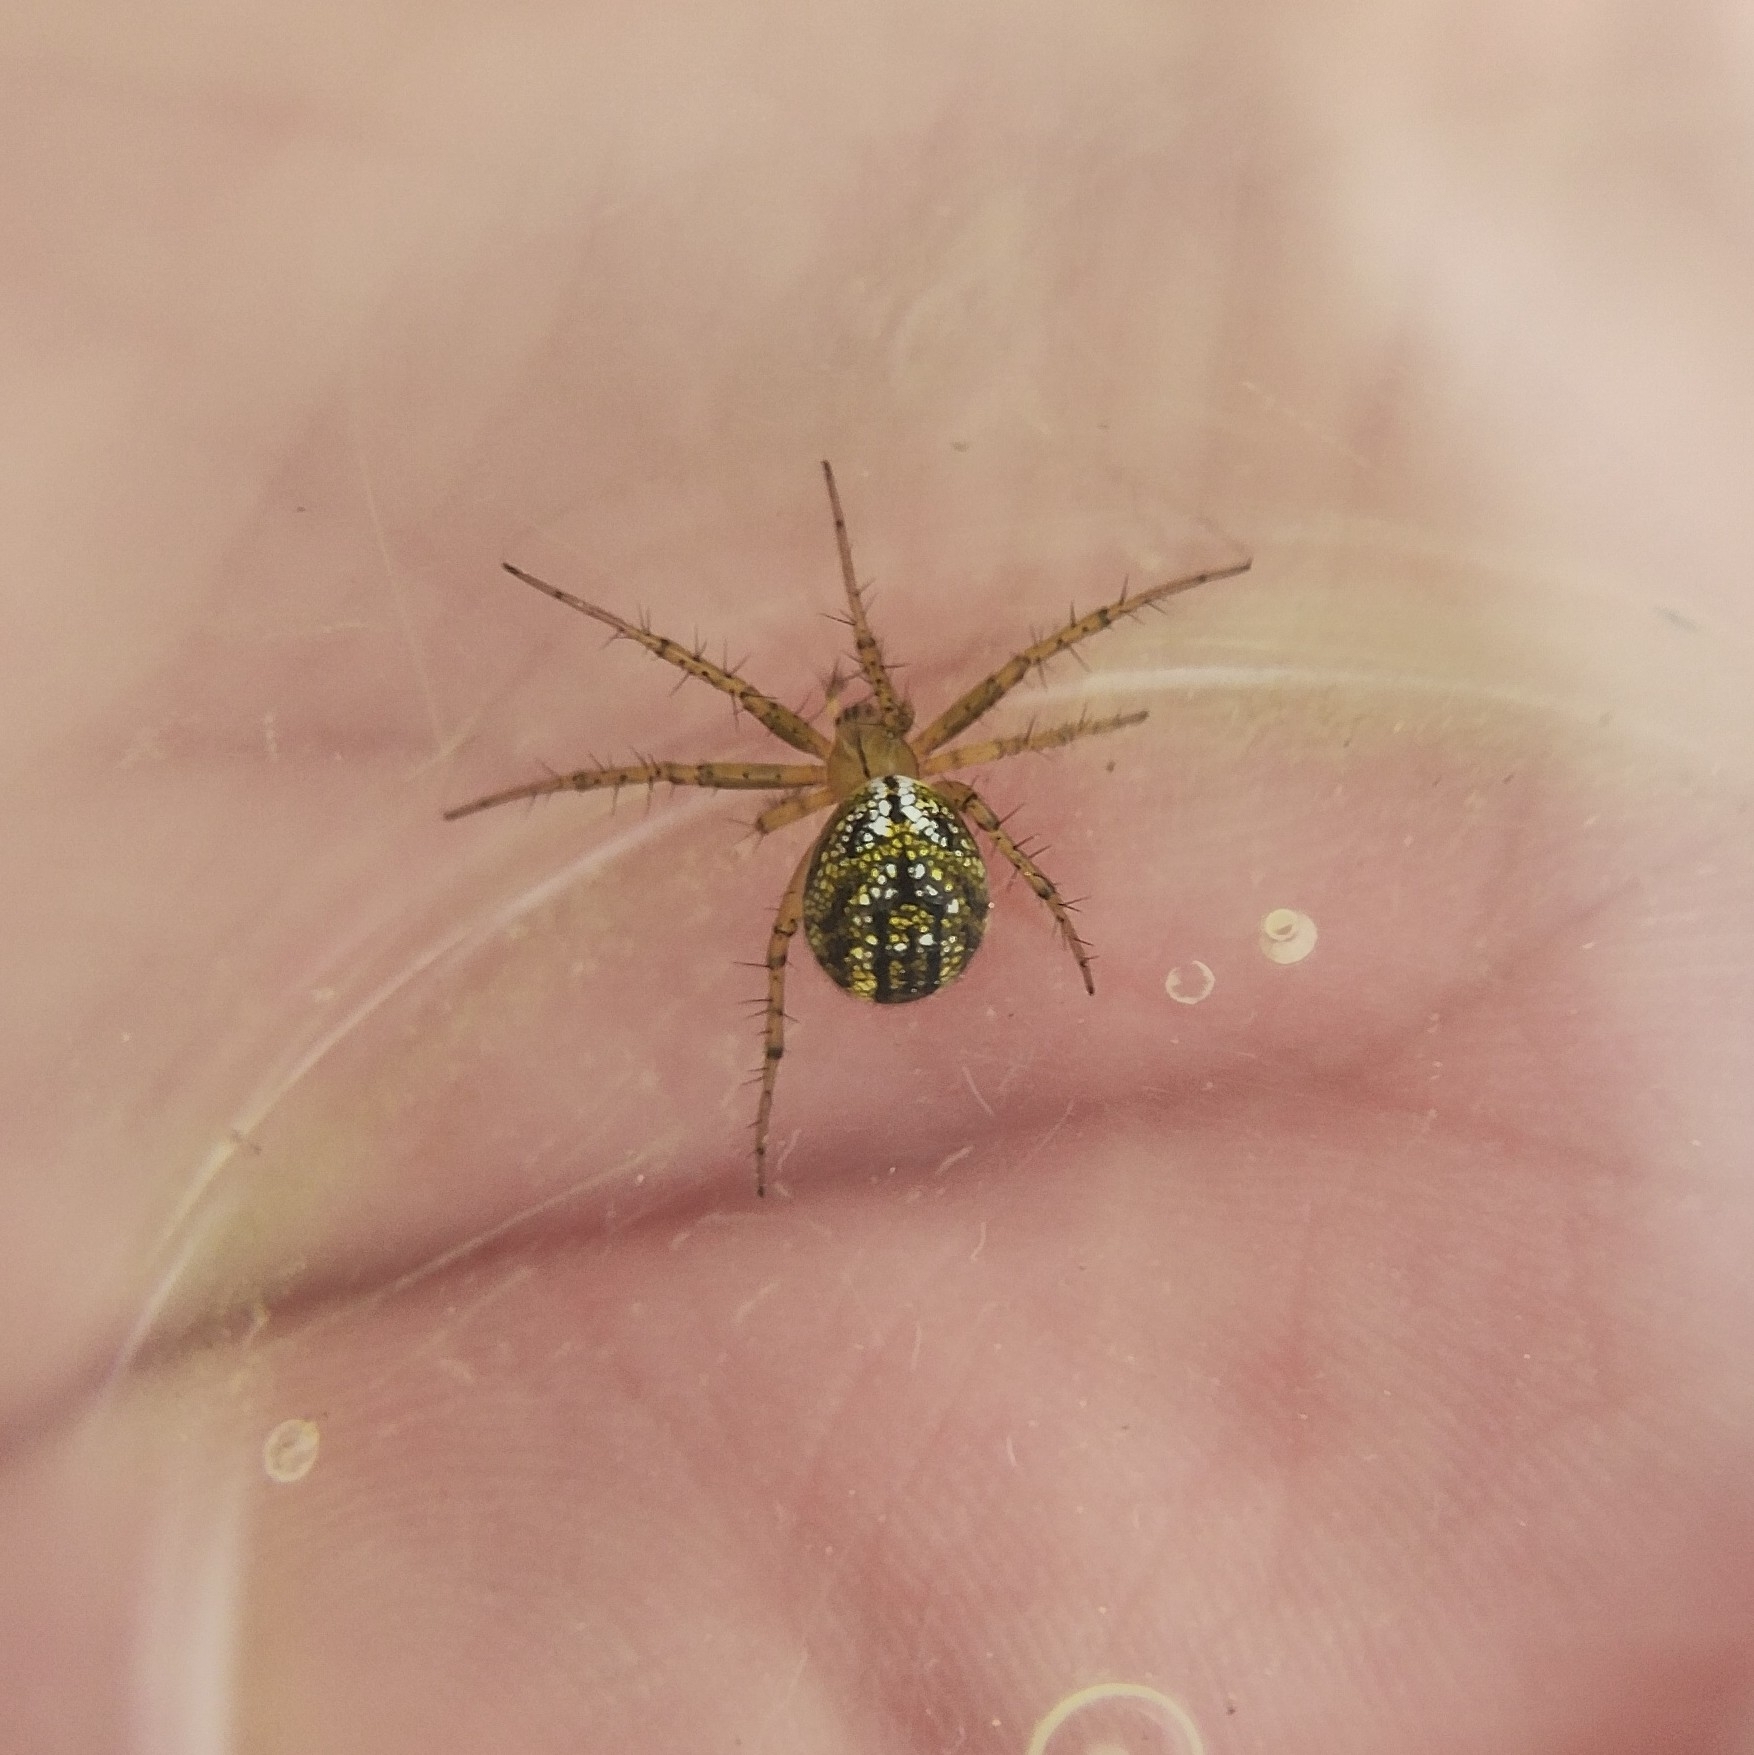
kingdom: Animalia
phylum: Arthropoda
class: Arachnida
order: Araneae
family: Araneidae
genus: Mangora
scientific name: Mangora acalypha
